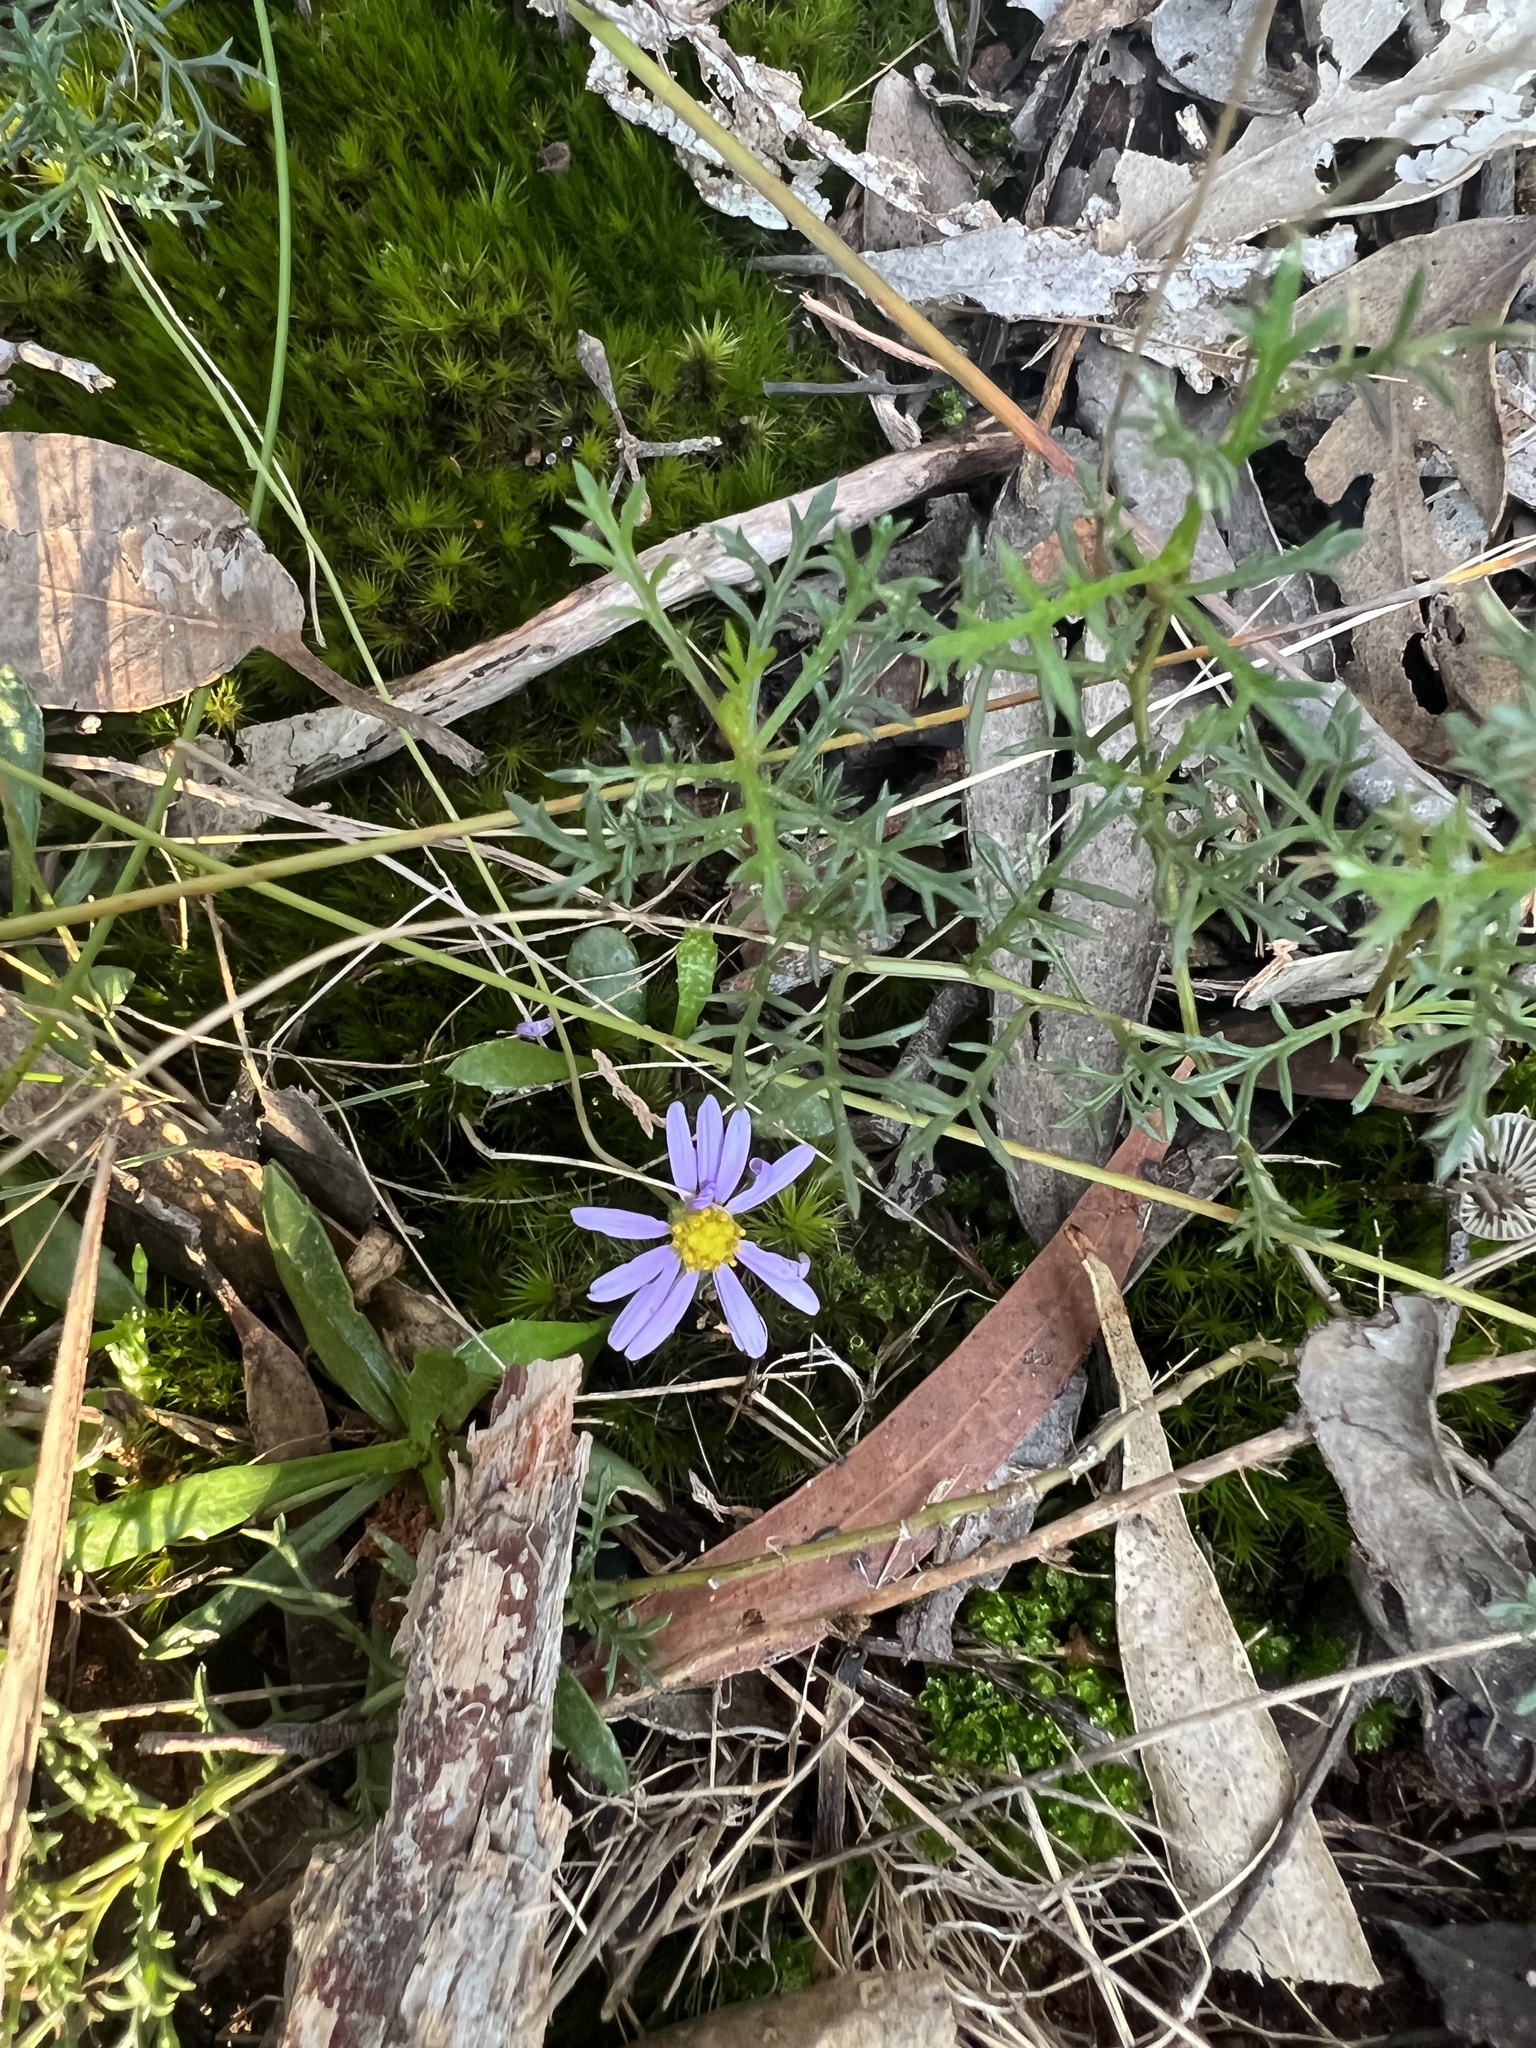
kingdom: Plantae
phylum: Tracheophyta
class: Magnoliopsida
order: Asterales
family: Asteraceae
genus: Brachyscome
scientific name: Brachyscome multifida
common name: Cut-leaf daisy
